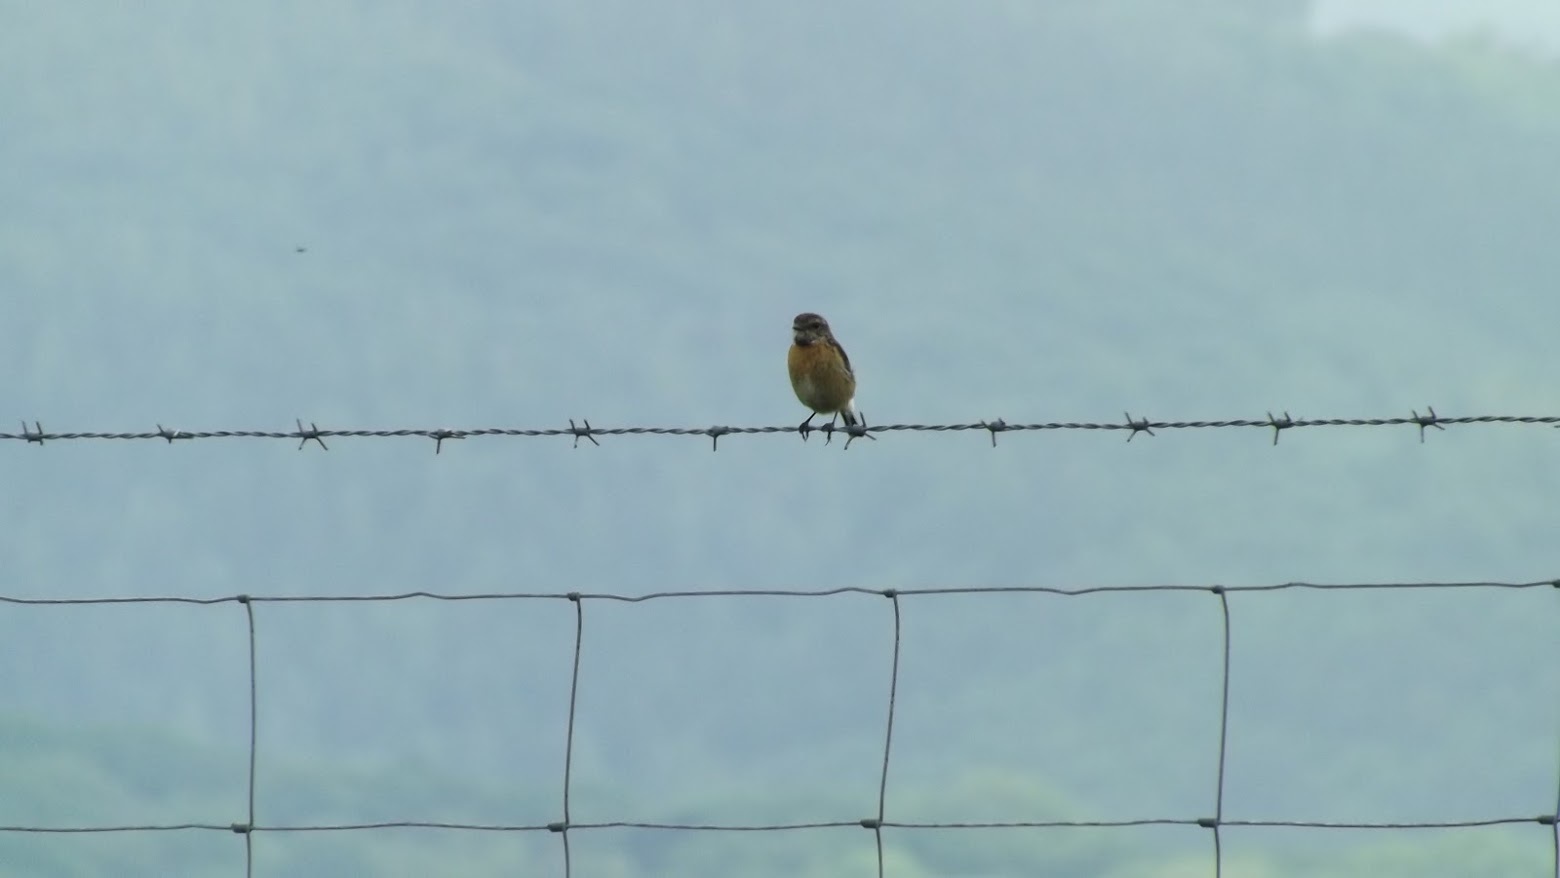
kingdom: Animalia
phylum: Chordata
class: Aves
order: Passeriformes
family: Muscicapidae
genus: Saxicola
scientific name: Saxicola rubicola
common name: European stonechat
